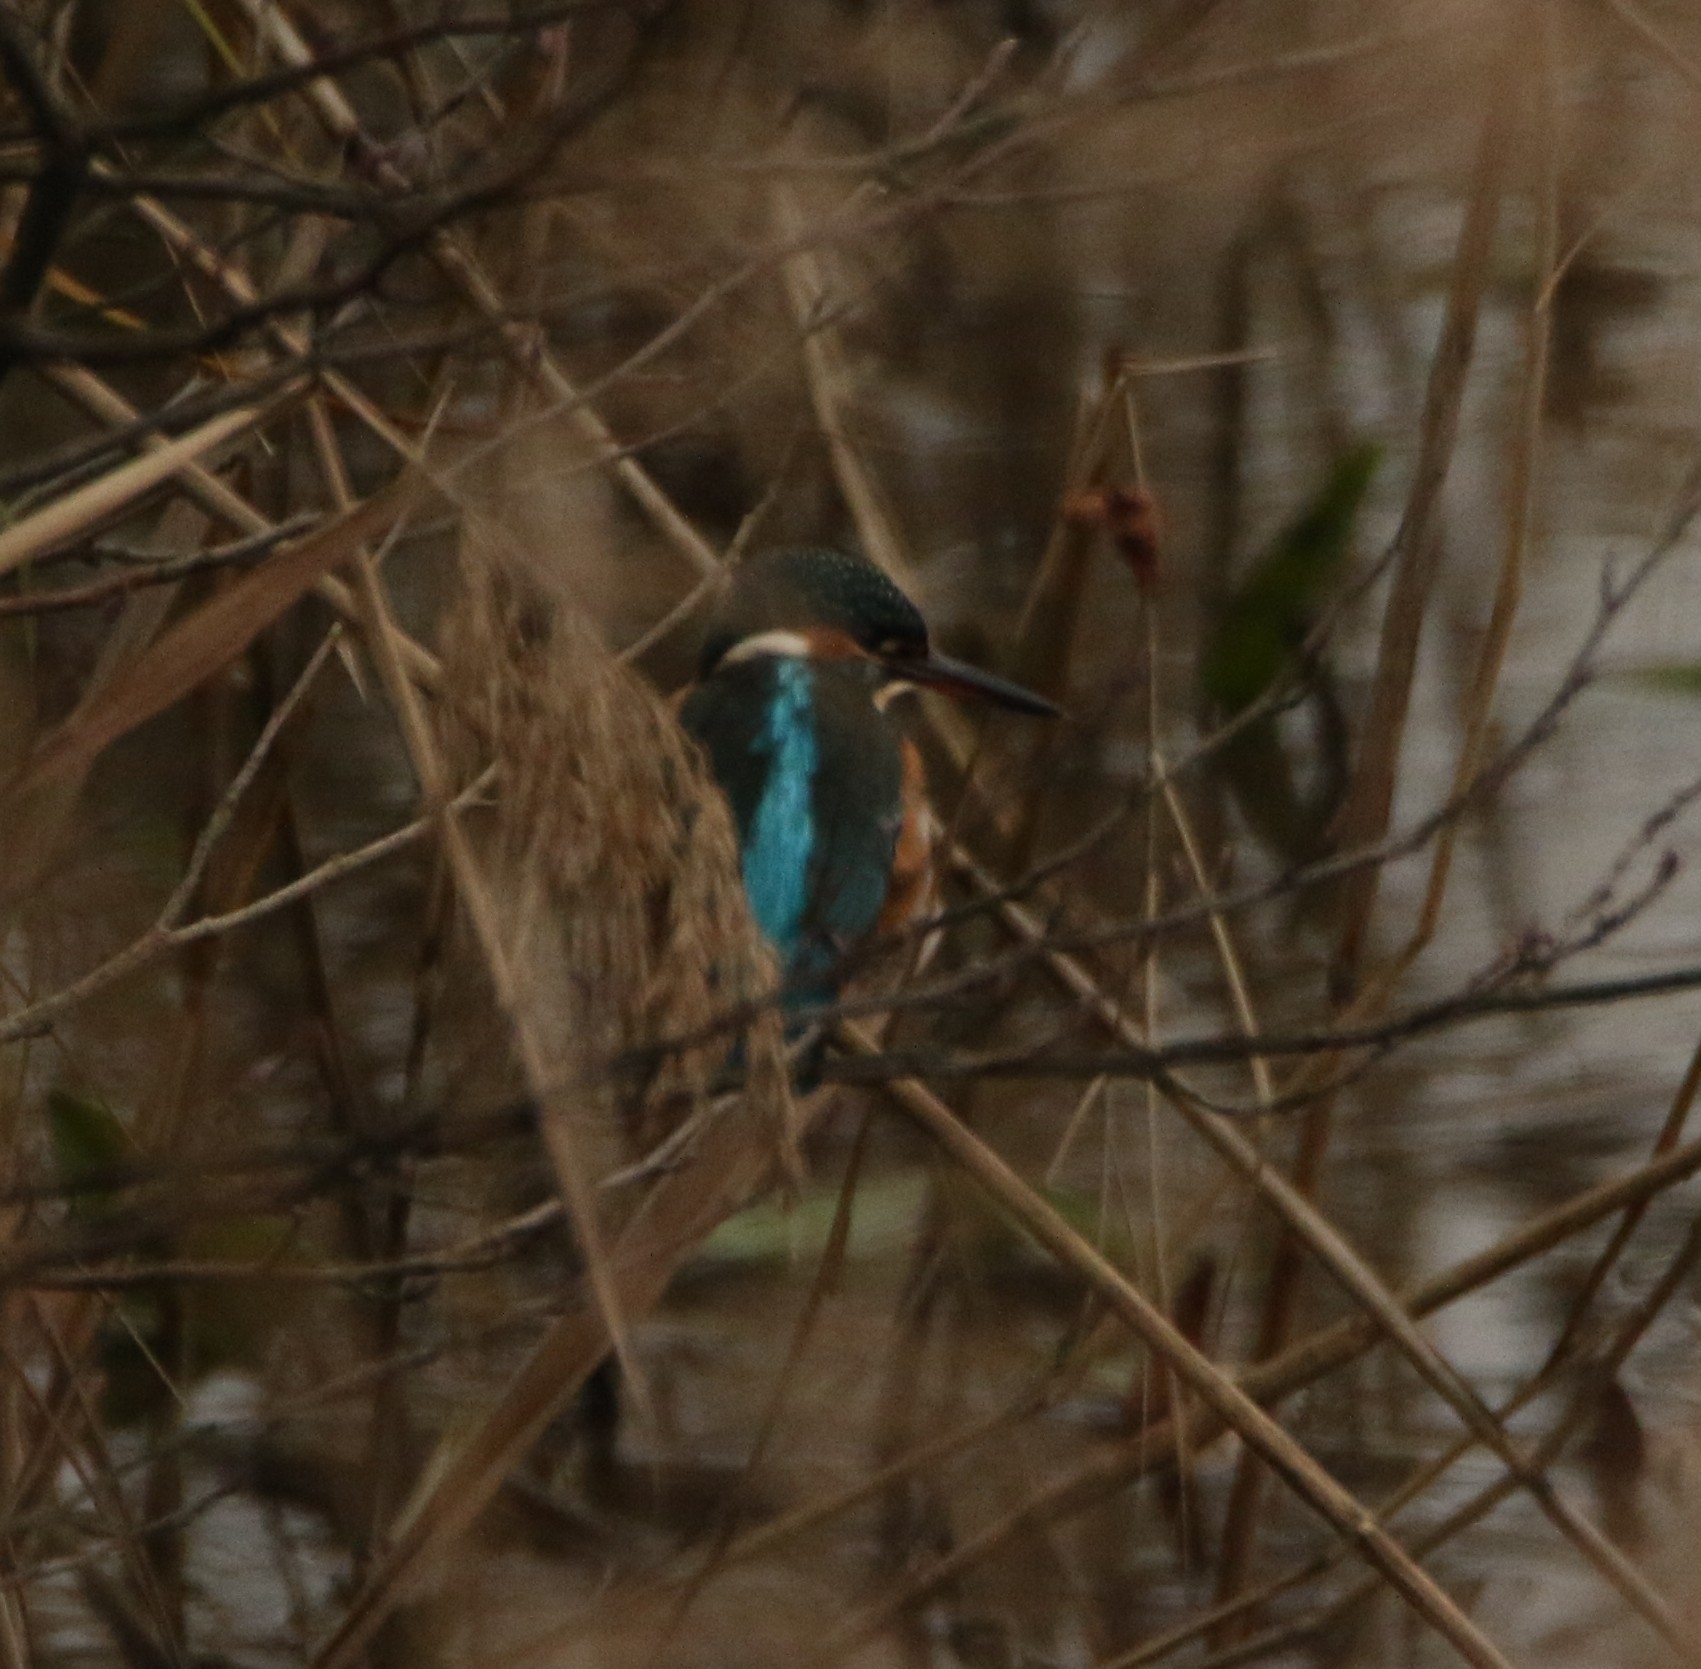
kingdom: Animalia
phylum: Chordata
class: Aves
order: Coraciiformes
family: Alcedinidae
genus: Alcedo
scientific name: Alcedo atthis
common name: Common kingfisher
